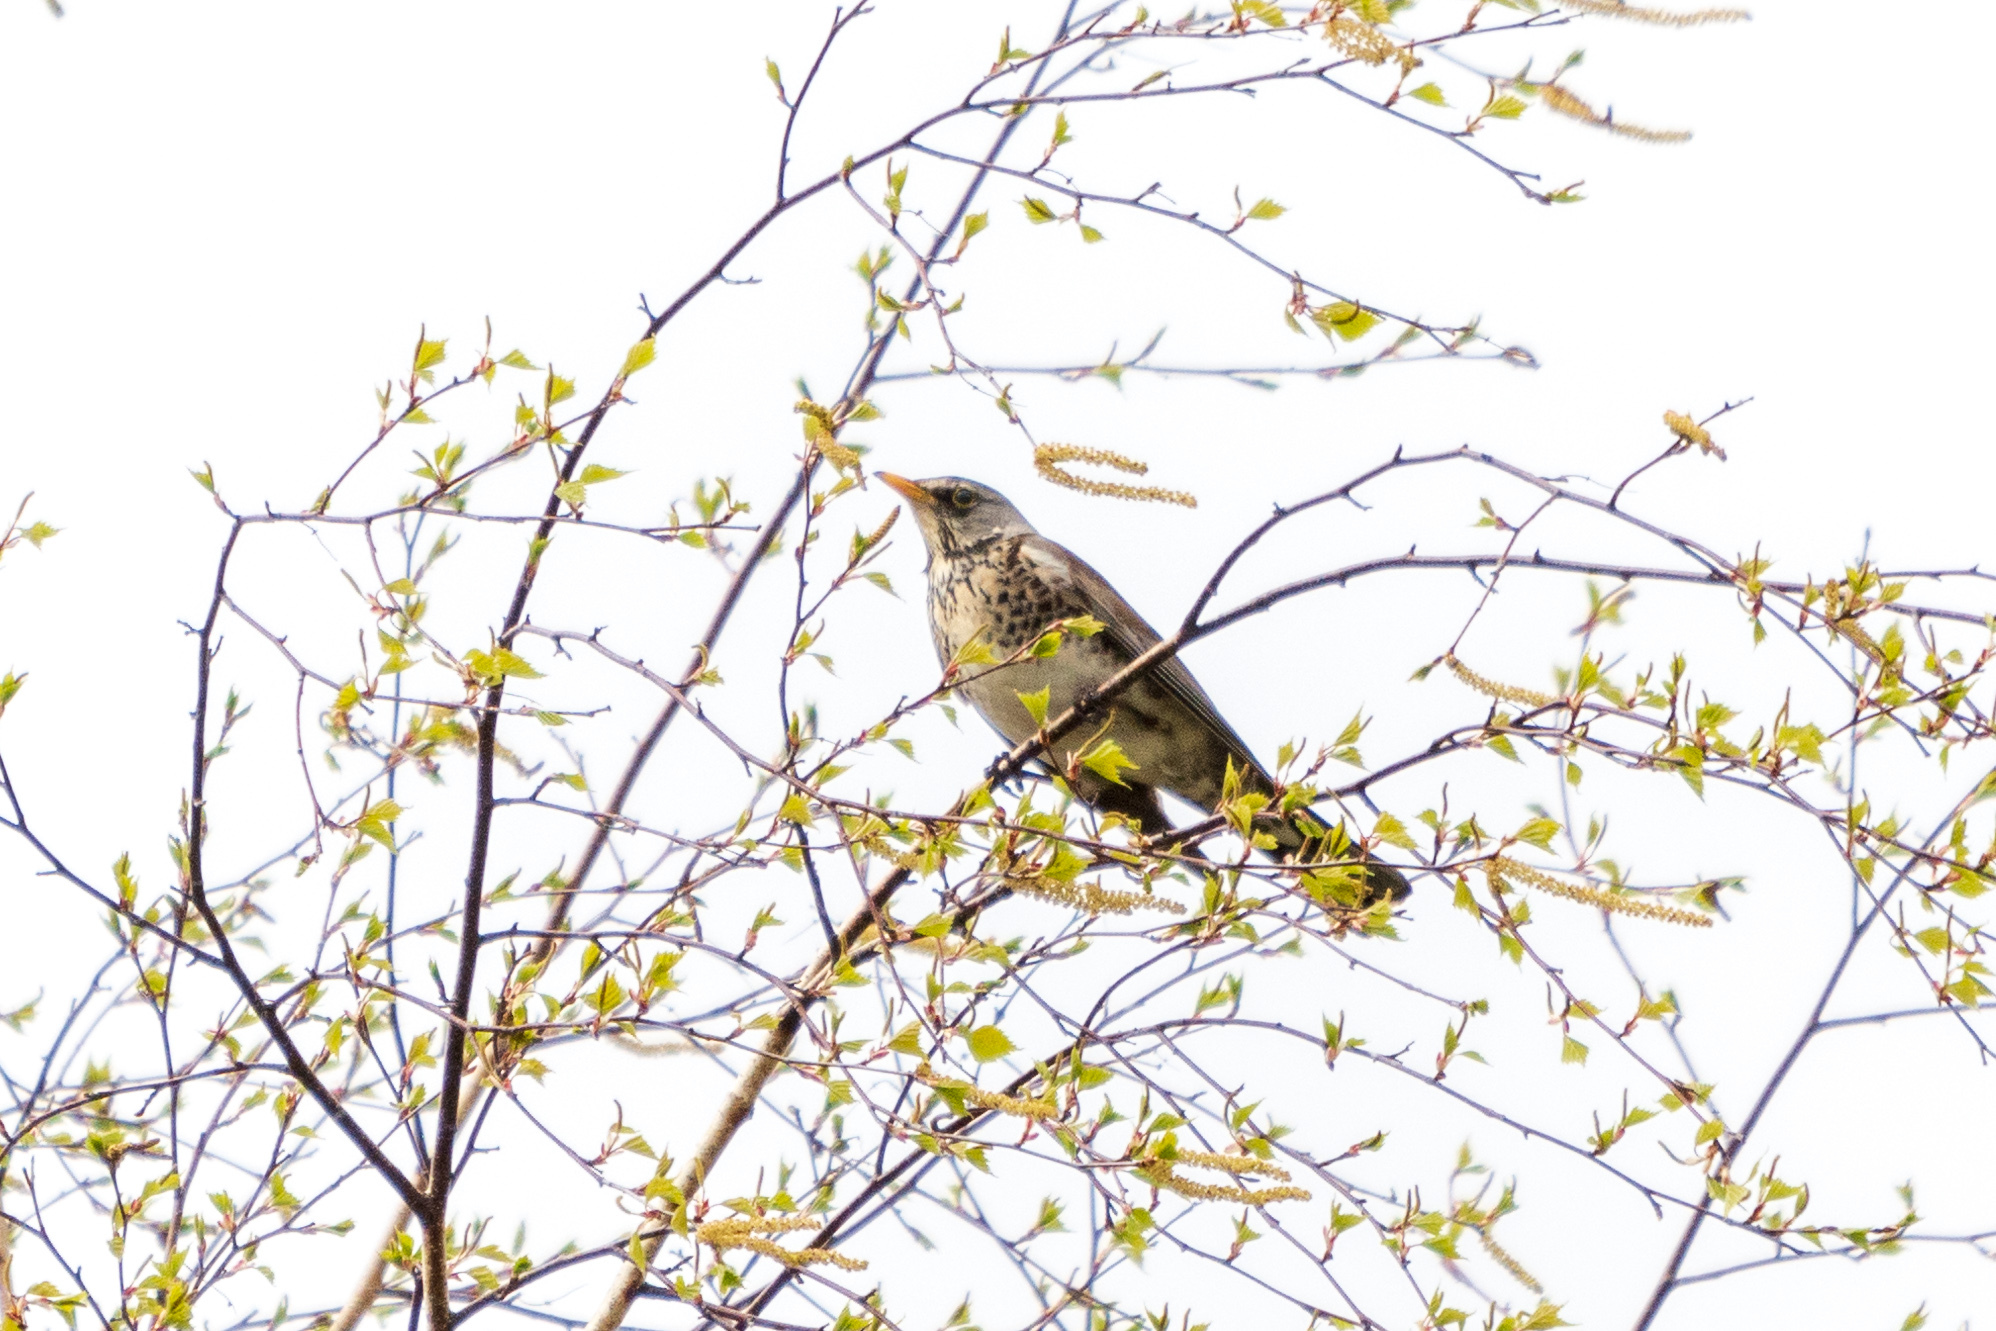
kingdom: Animalia
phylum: Chordata
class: Aves
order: Passeriformes
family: Turdidae
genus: Turdus
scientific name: Turdus pilaris
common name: Fieldfare
